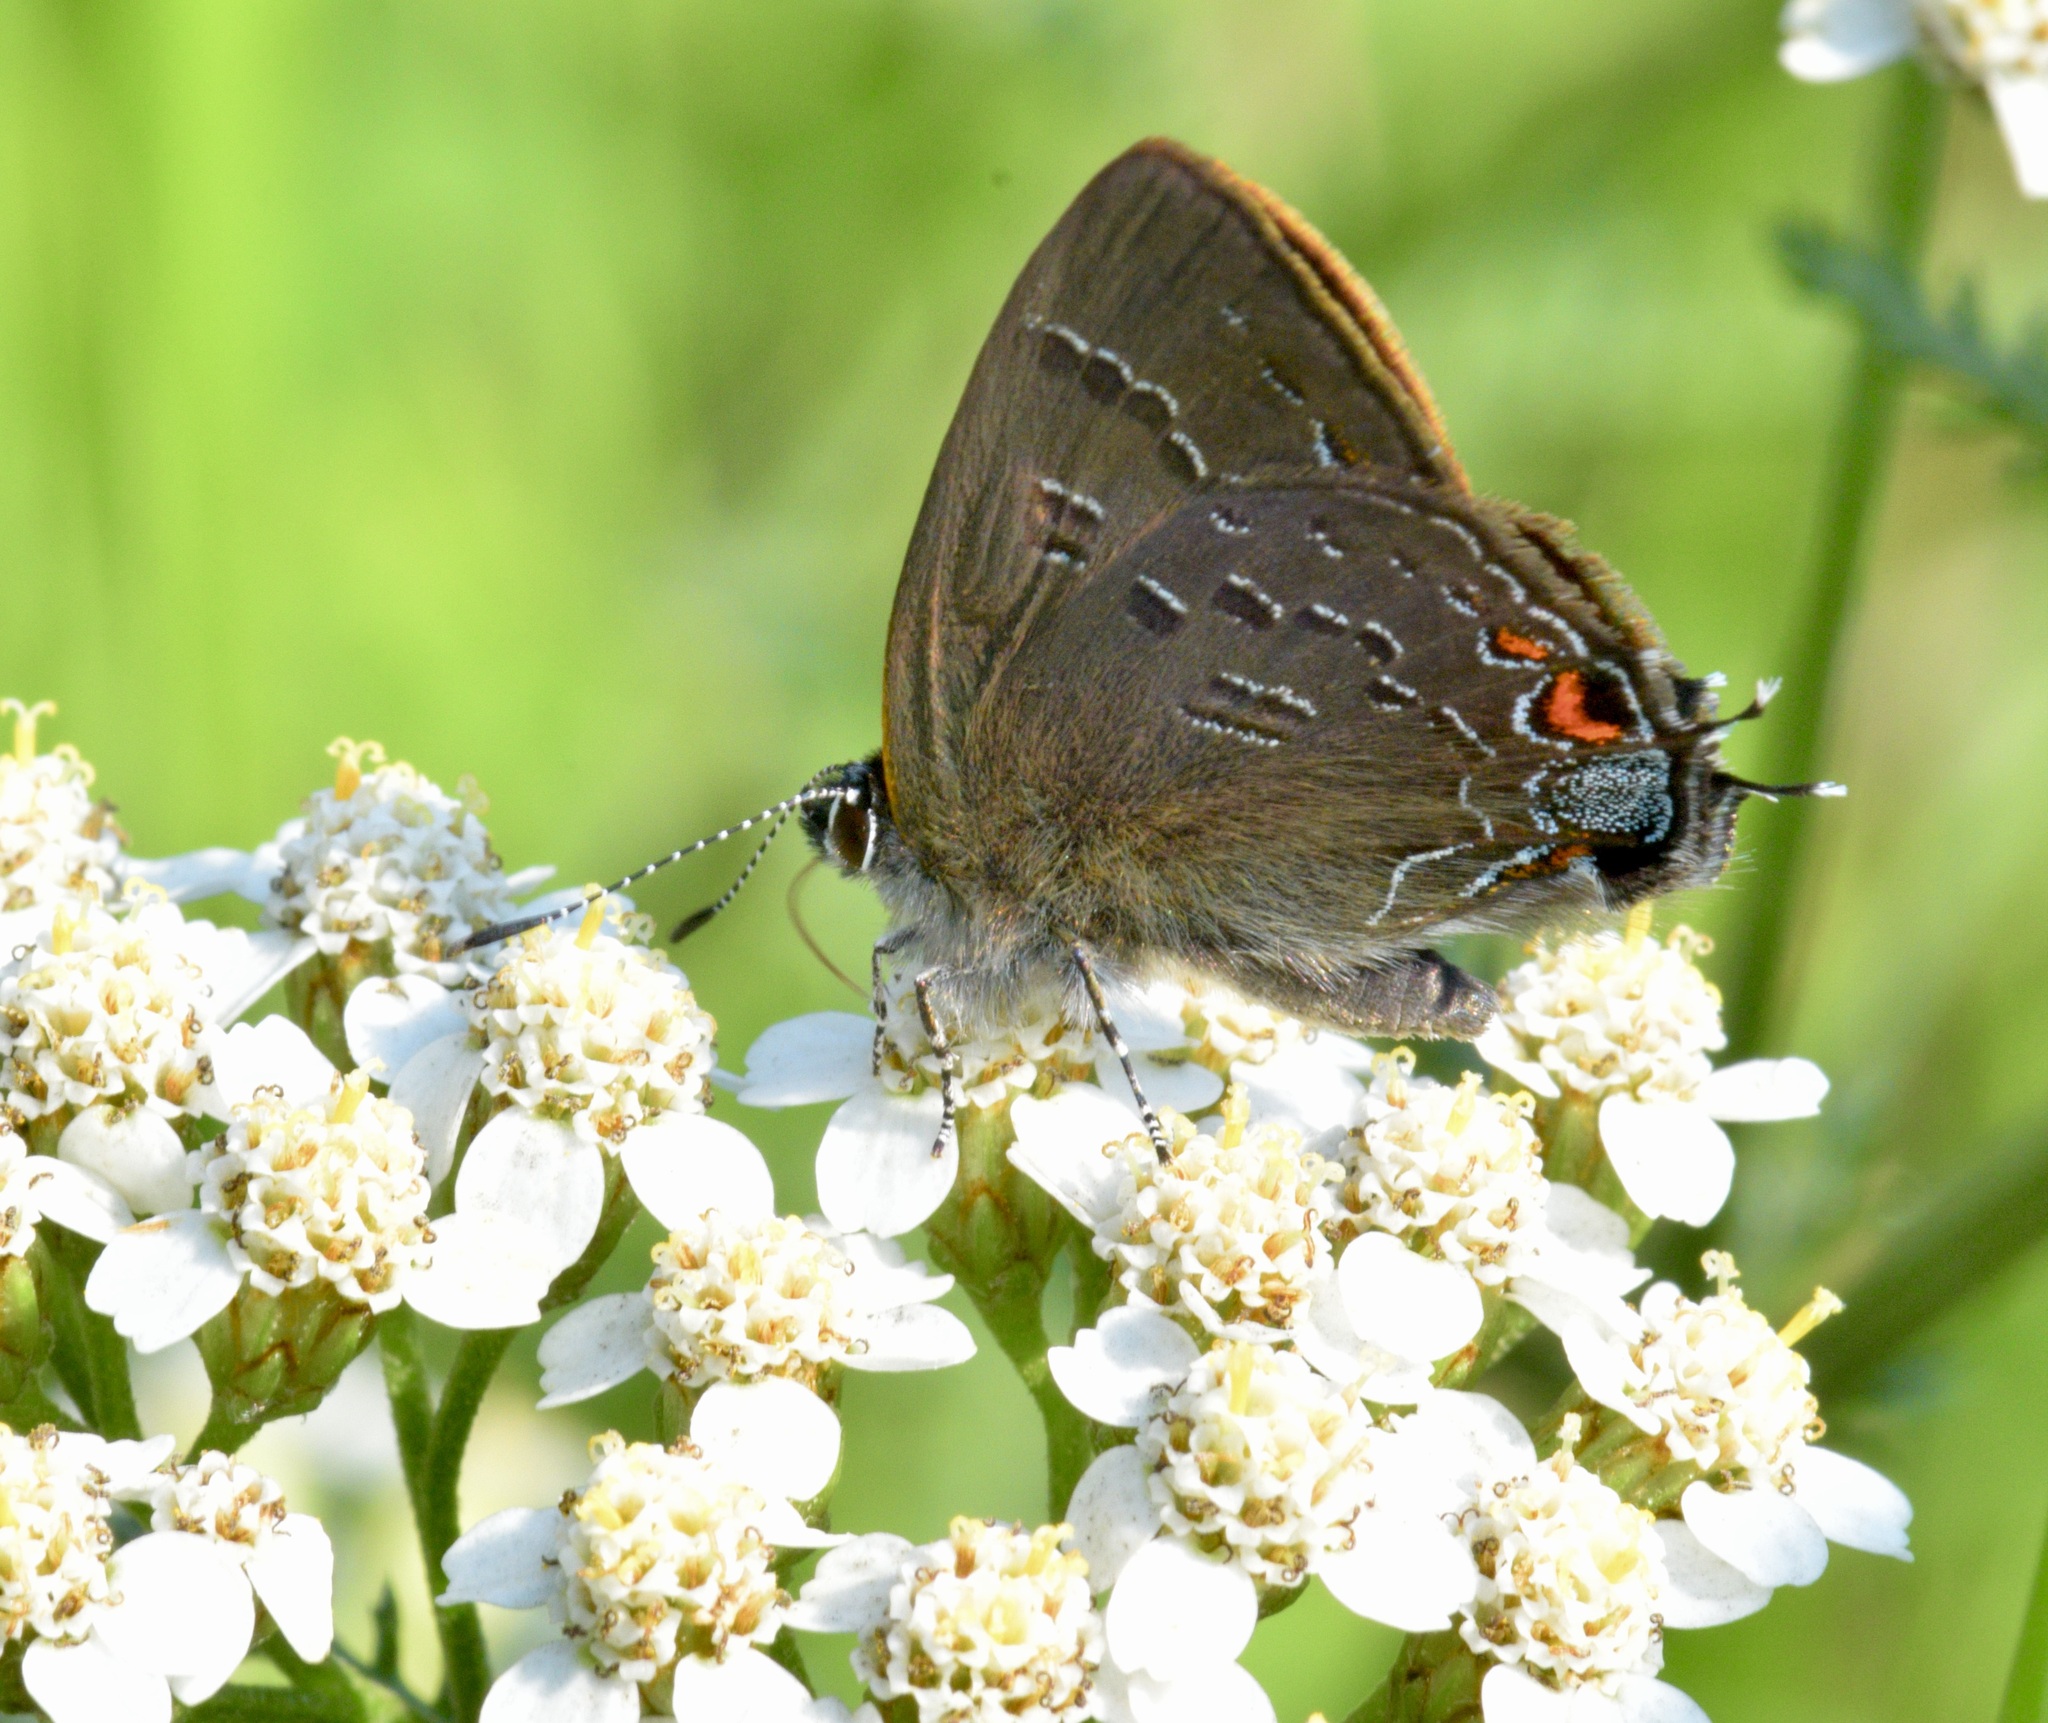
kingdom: Animalia
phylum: Arthropoda
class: Insecta
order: Lepidoptera
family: Lycaenidae
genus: Satyrium
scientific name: Satyrium calanus
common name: Banded hairstreak
